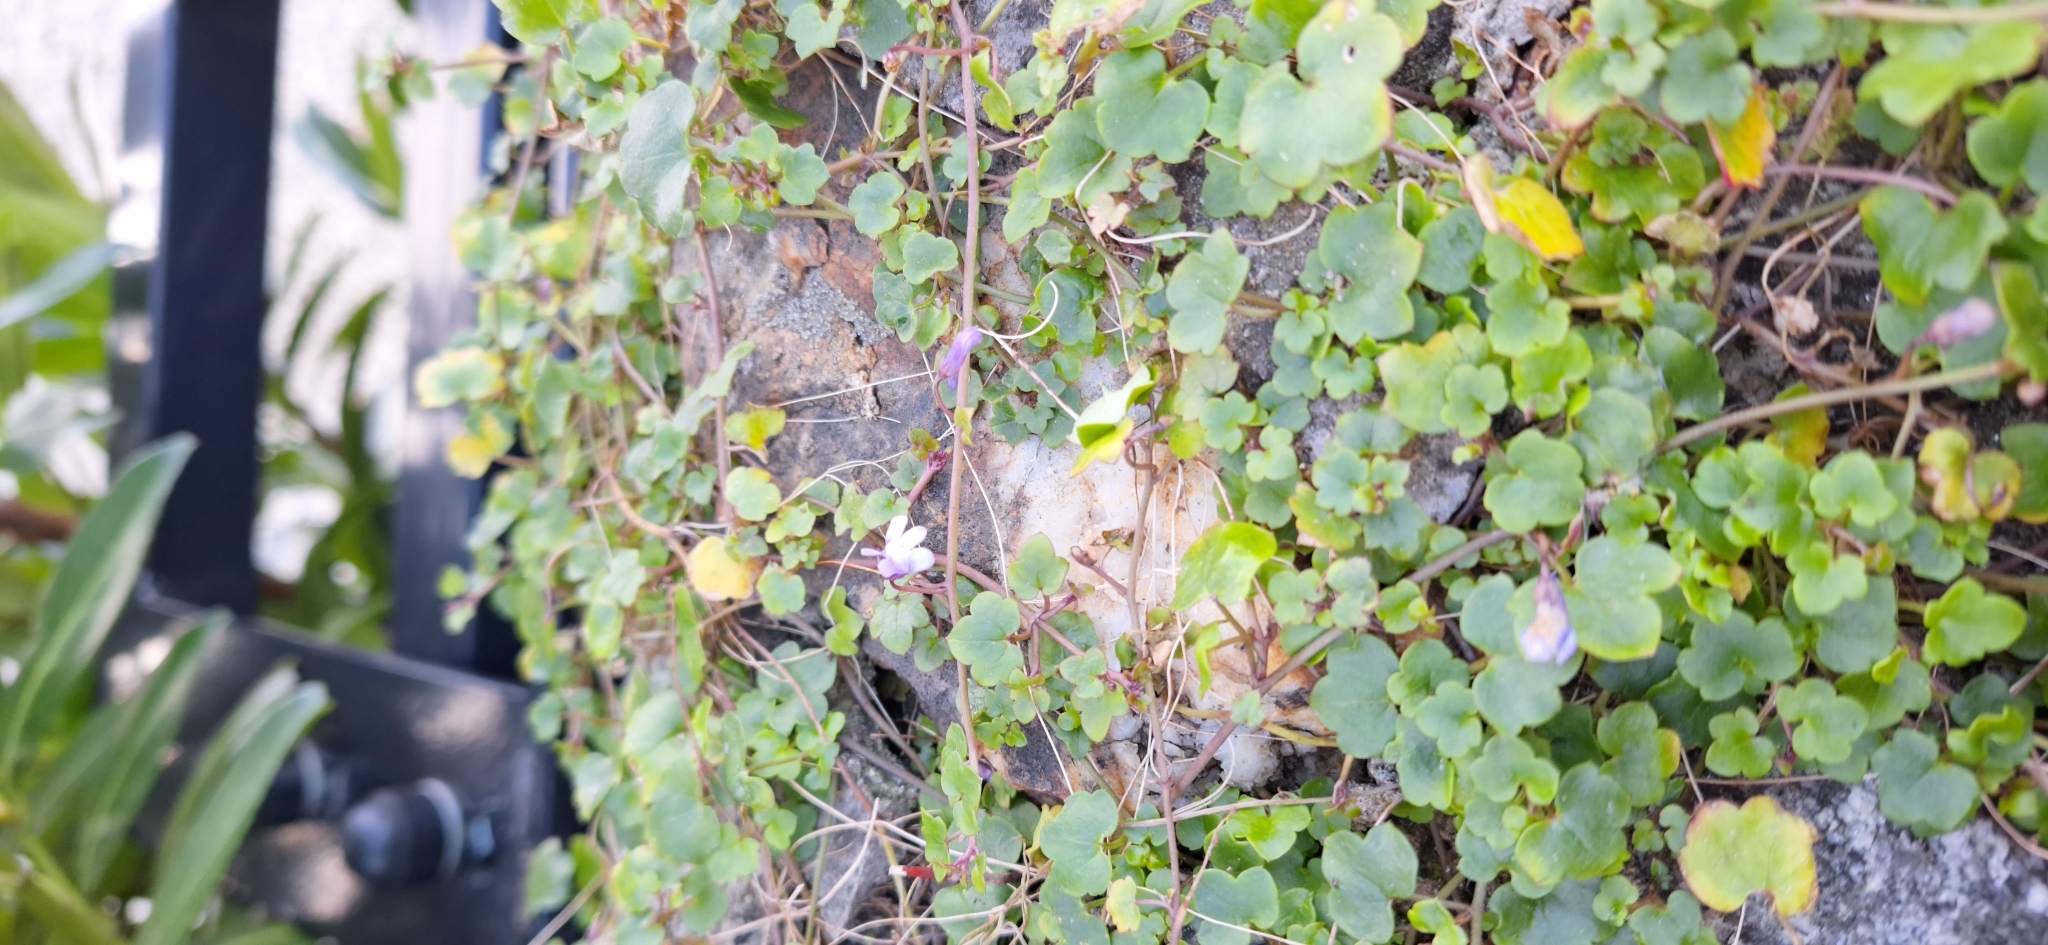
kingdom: Plantae
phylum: Tracheophyta
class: Magnoliopsida
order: Lamiales
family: Plantaginaceae
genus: Cymbalaria
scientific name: Cymbalaria muralis
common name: Ivy-leaved toadflax
